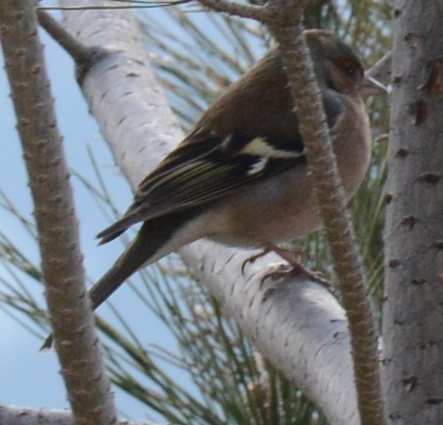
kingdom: Animalia
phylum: Chordata
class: Aves
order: Passeriformes
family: Fringillidae
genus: Fringilla
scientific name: Fringilla coelebs
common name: Common chaffinch
